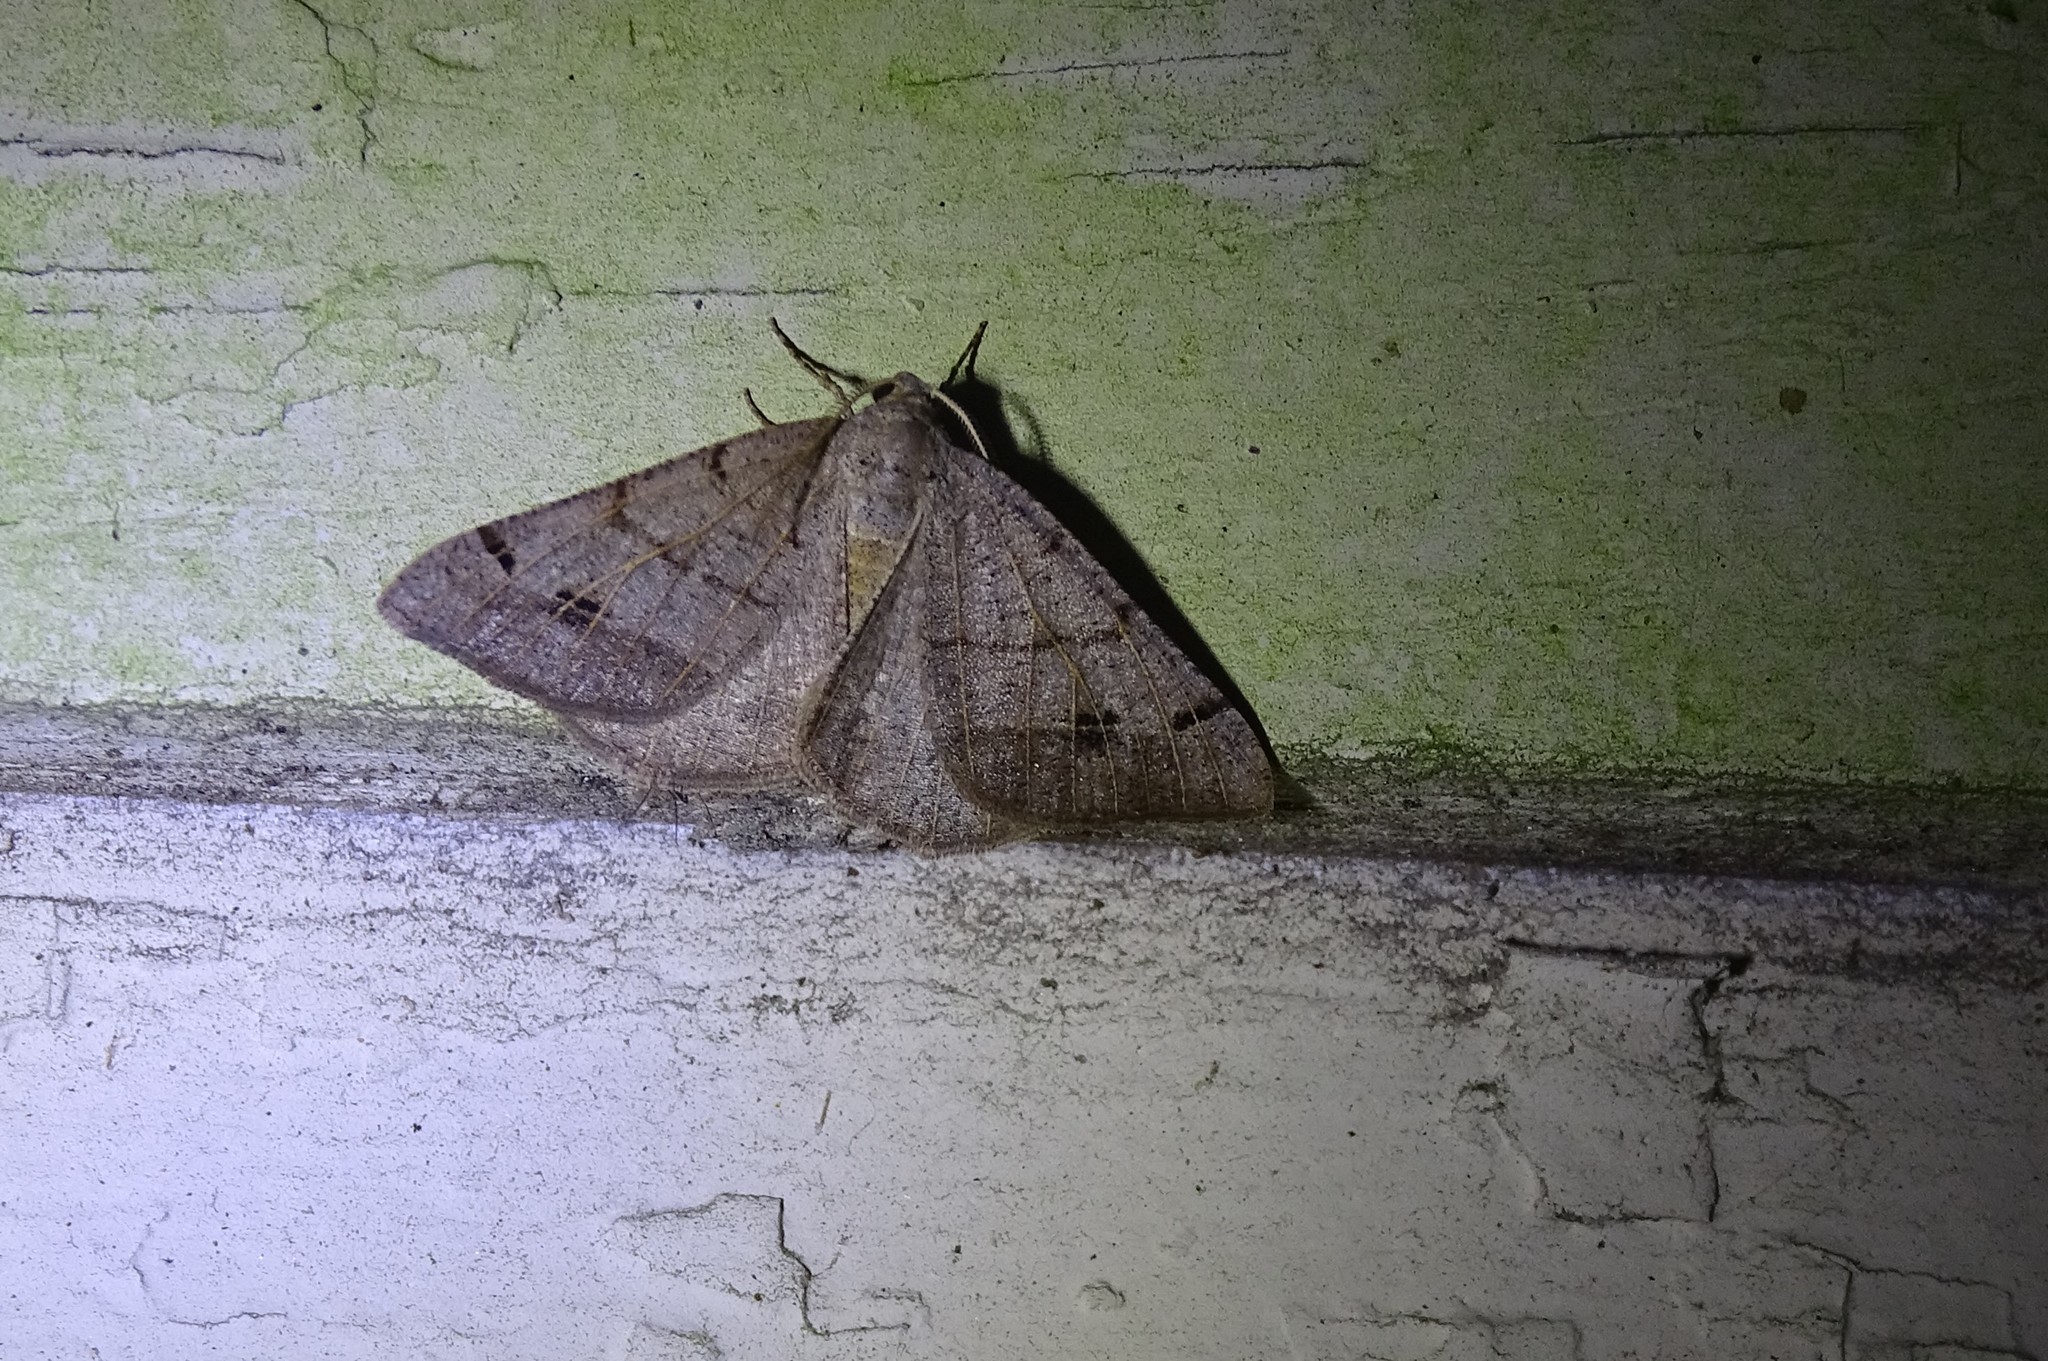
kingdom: Animalia
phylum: Arthropoda
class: Insecta
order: Lepidoptera
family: Geometridae
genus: Isturgia
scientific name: Isturgia dislocaria
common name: Pale-viened enconista
